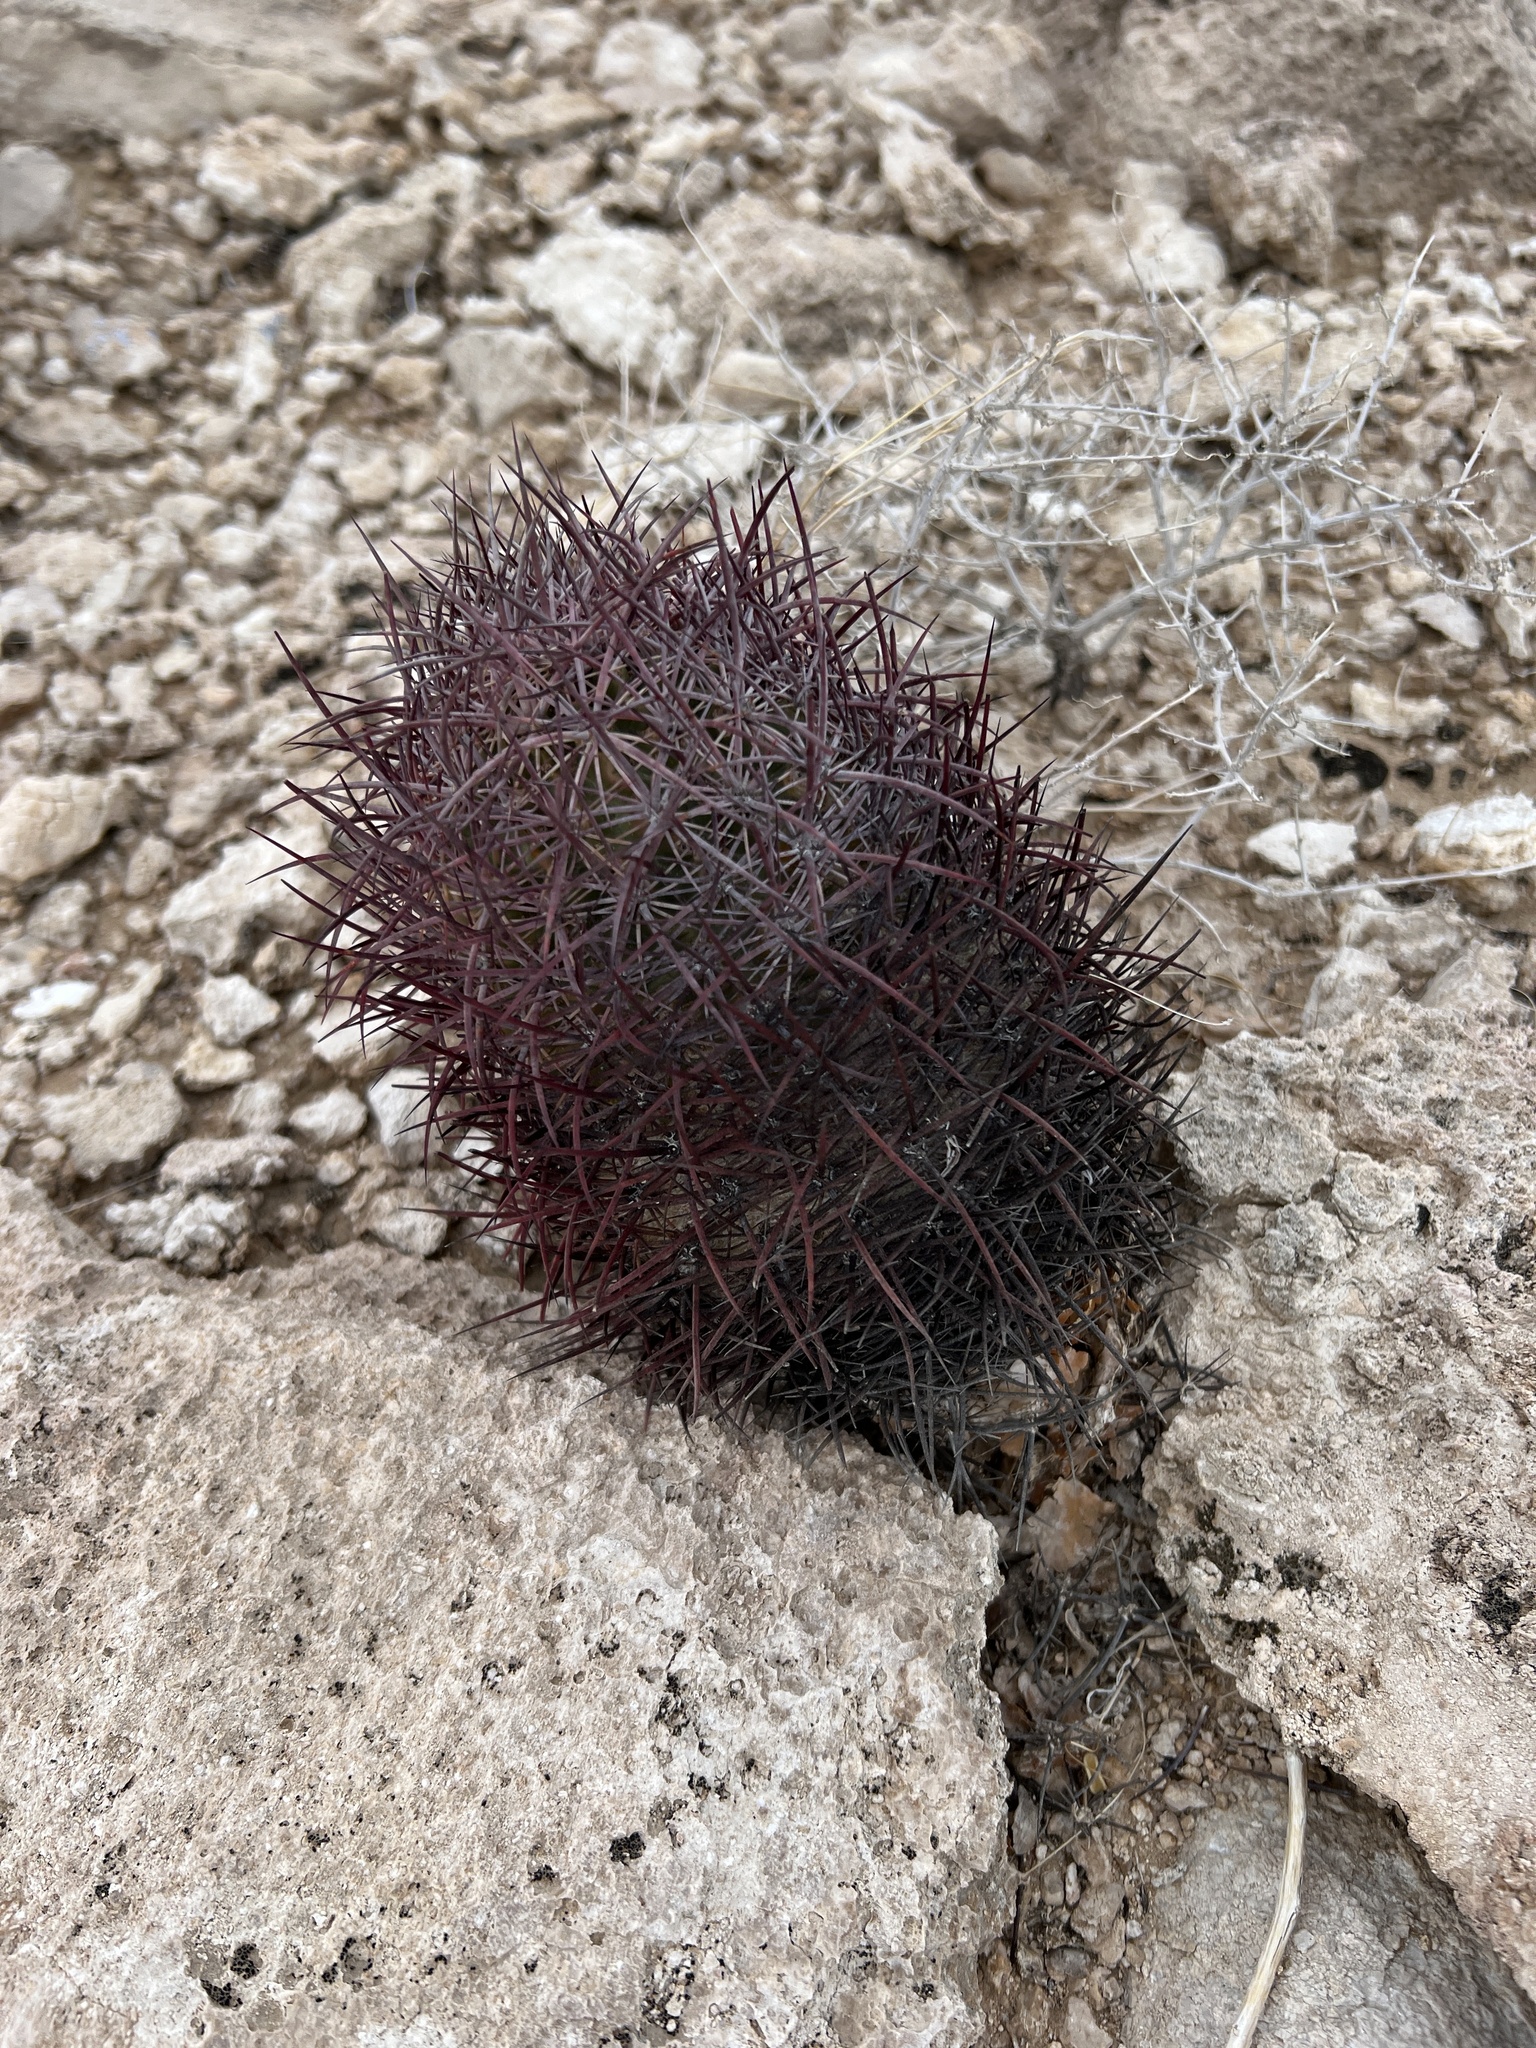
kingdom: Plantae
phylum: Tracheophyta
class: Magnoliopsida
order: Caryophyllales
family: Cactaceae
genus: Sclerocactus
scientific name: Sclerocactus johnsonii
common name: Eight-spine fishhook cactus
